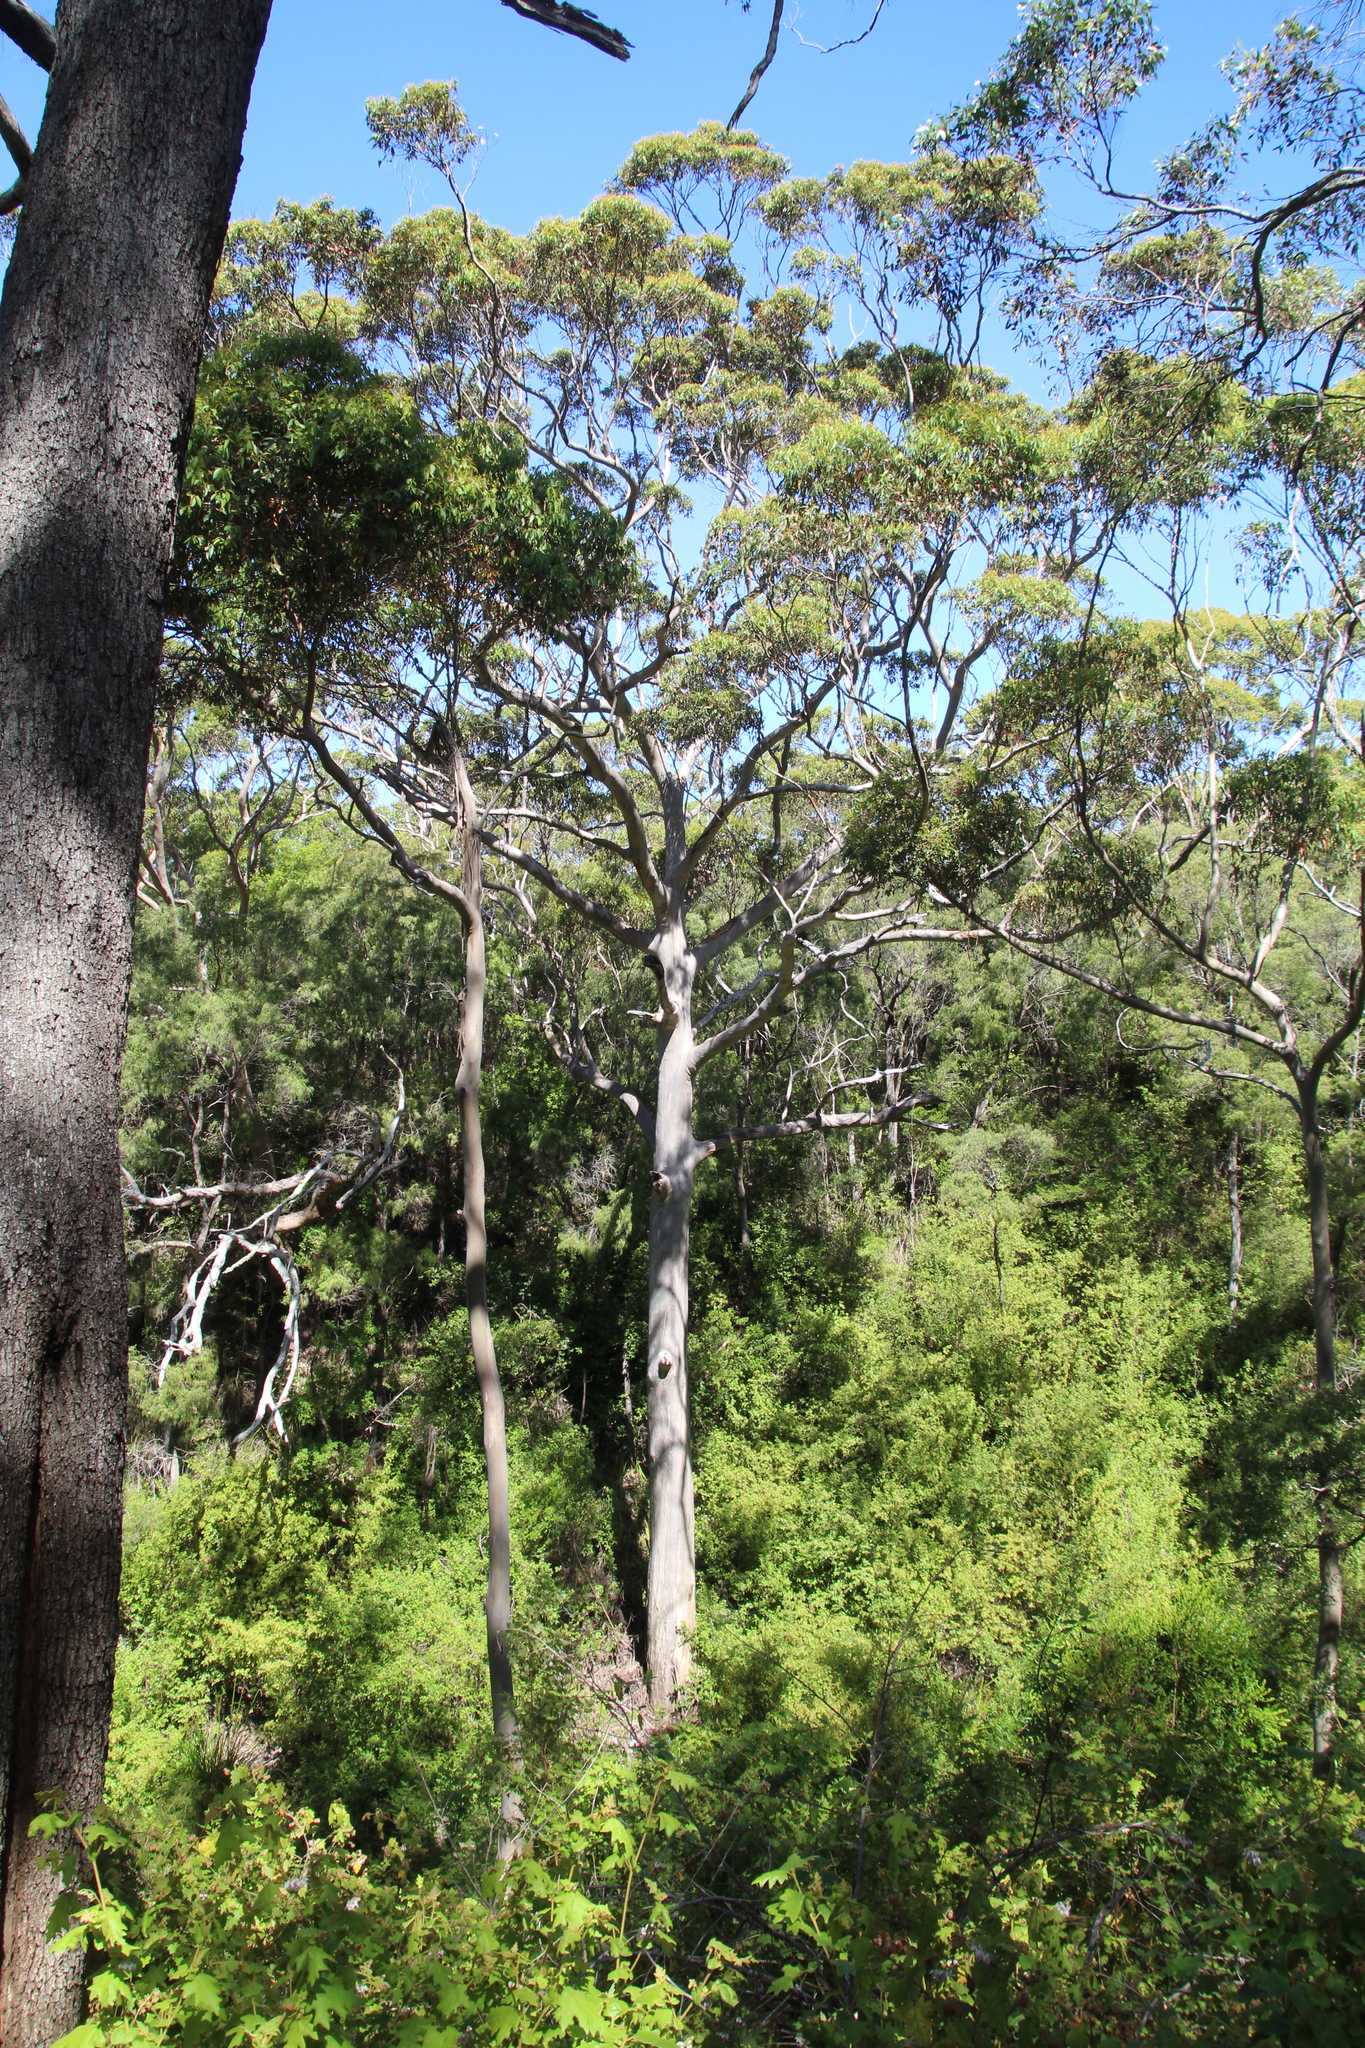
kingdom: Plantae
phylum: Tracheophyta
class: Magnoliopsida
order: Myrtales
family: Myrtaceae
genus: Eucalyptus
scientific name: Eucalyptus diversicolor
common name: Karri
